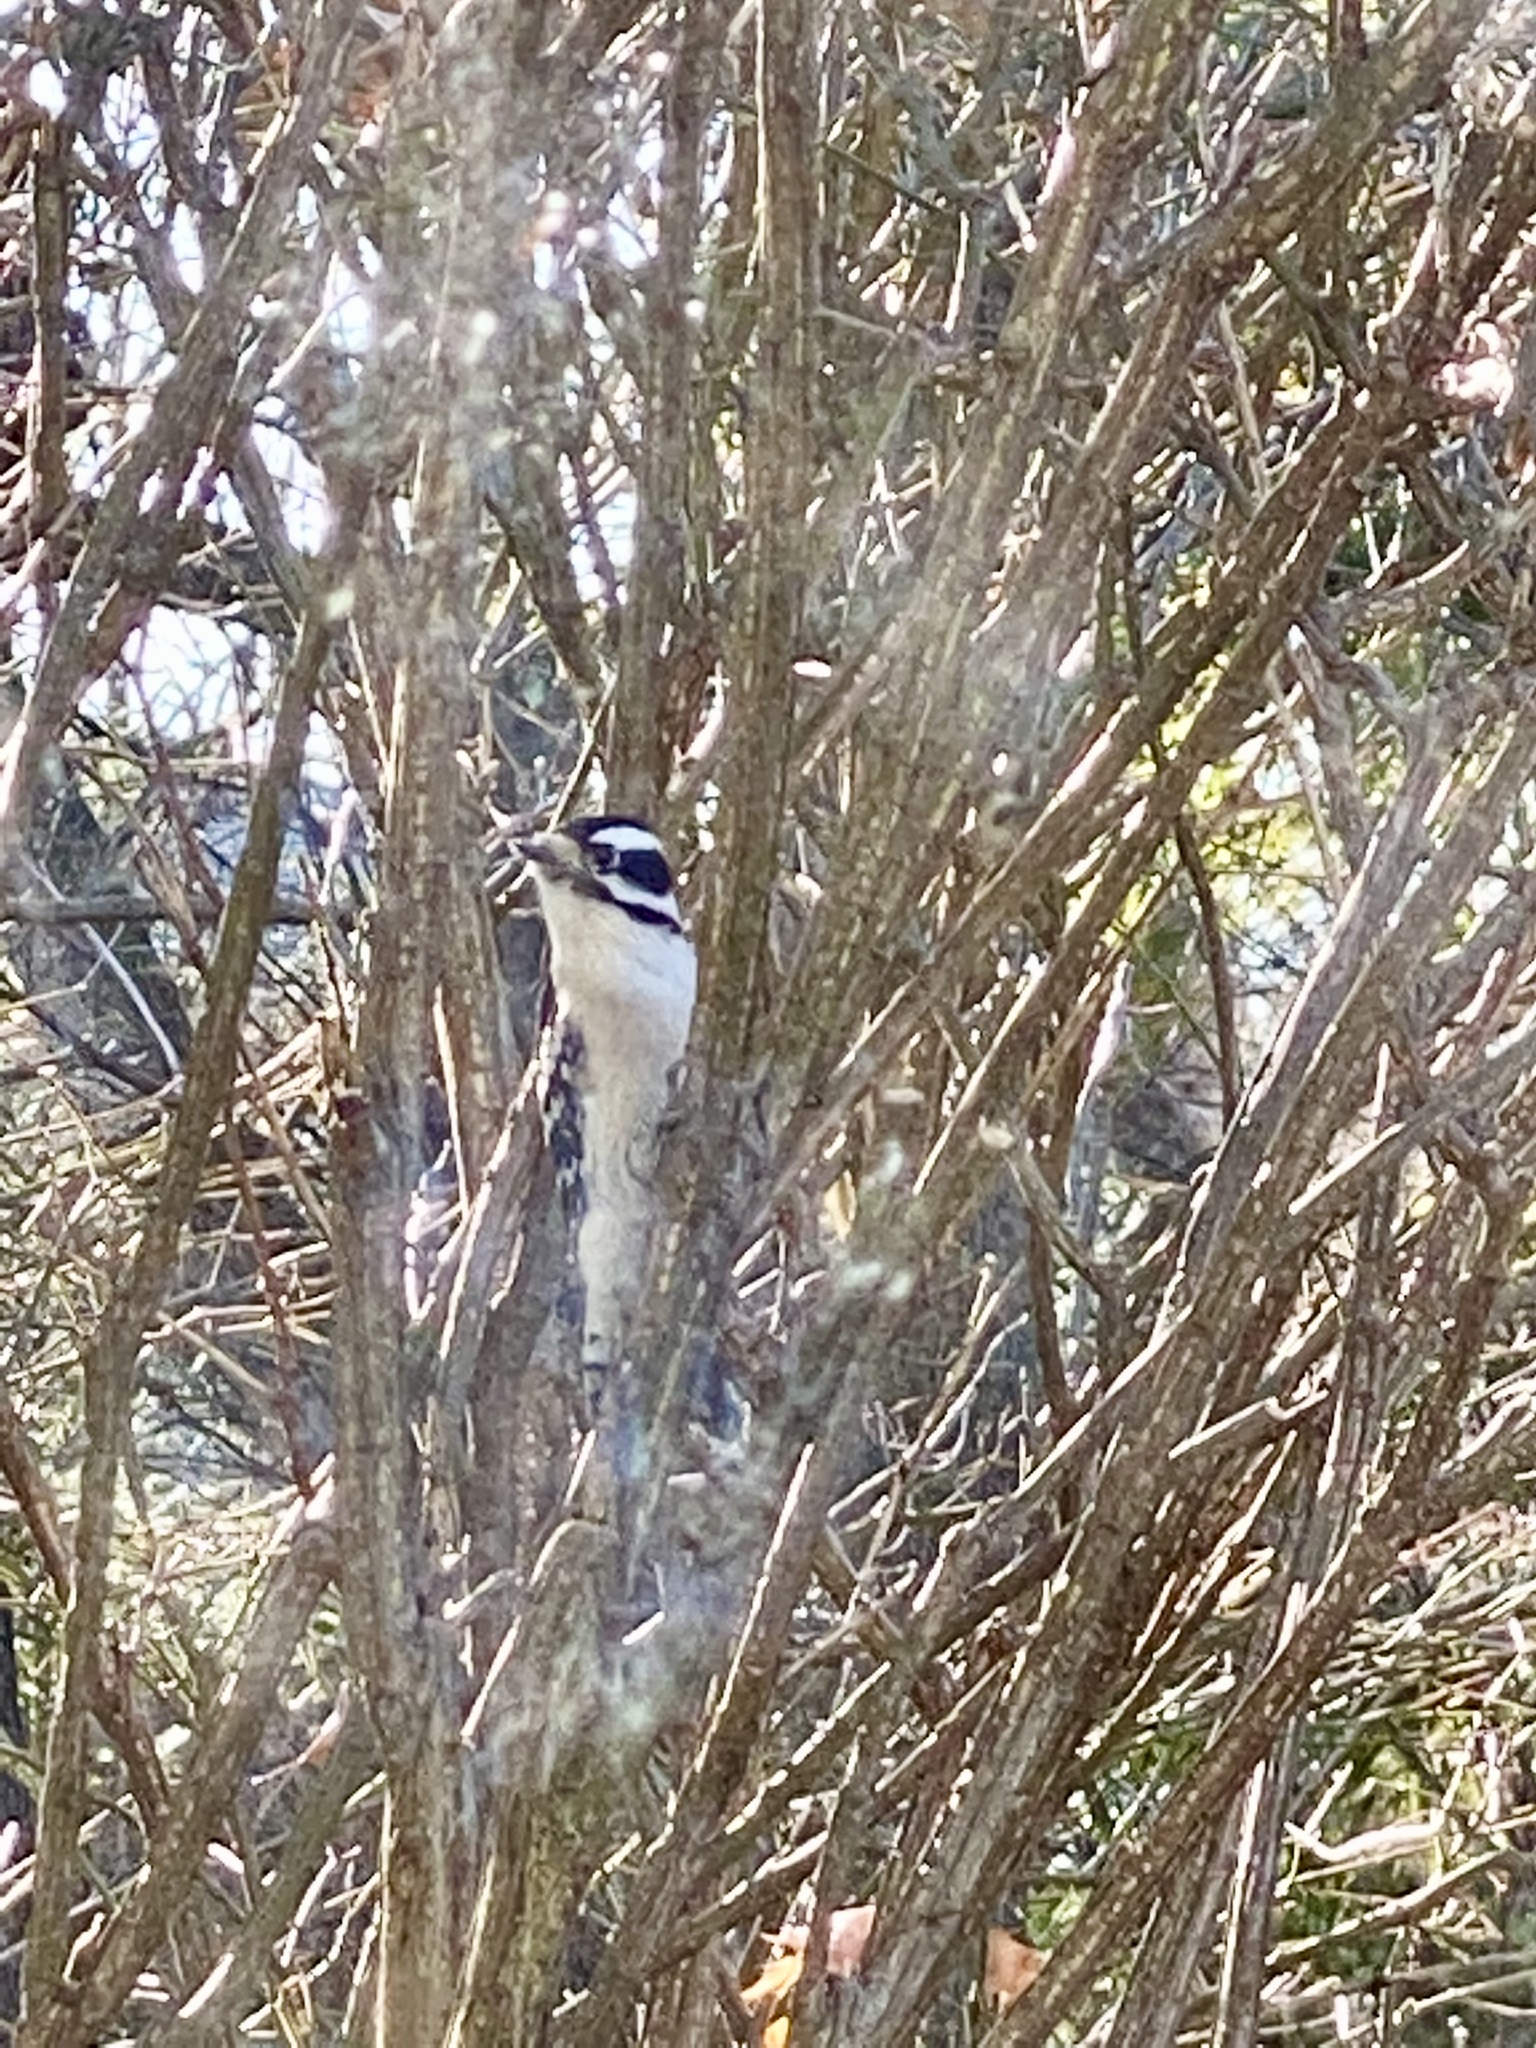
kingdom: Animalia
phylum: Chordata
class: Aves
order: Piciformes
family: Picidae
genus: Dryobates
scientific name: Dryobates pubescens
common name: Downy woodpecker
